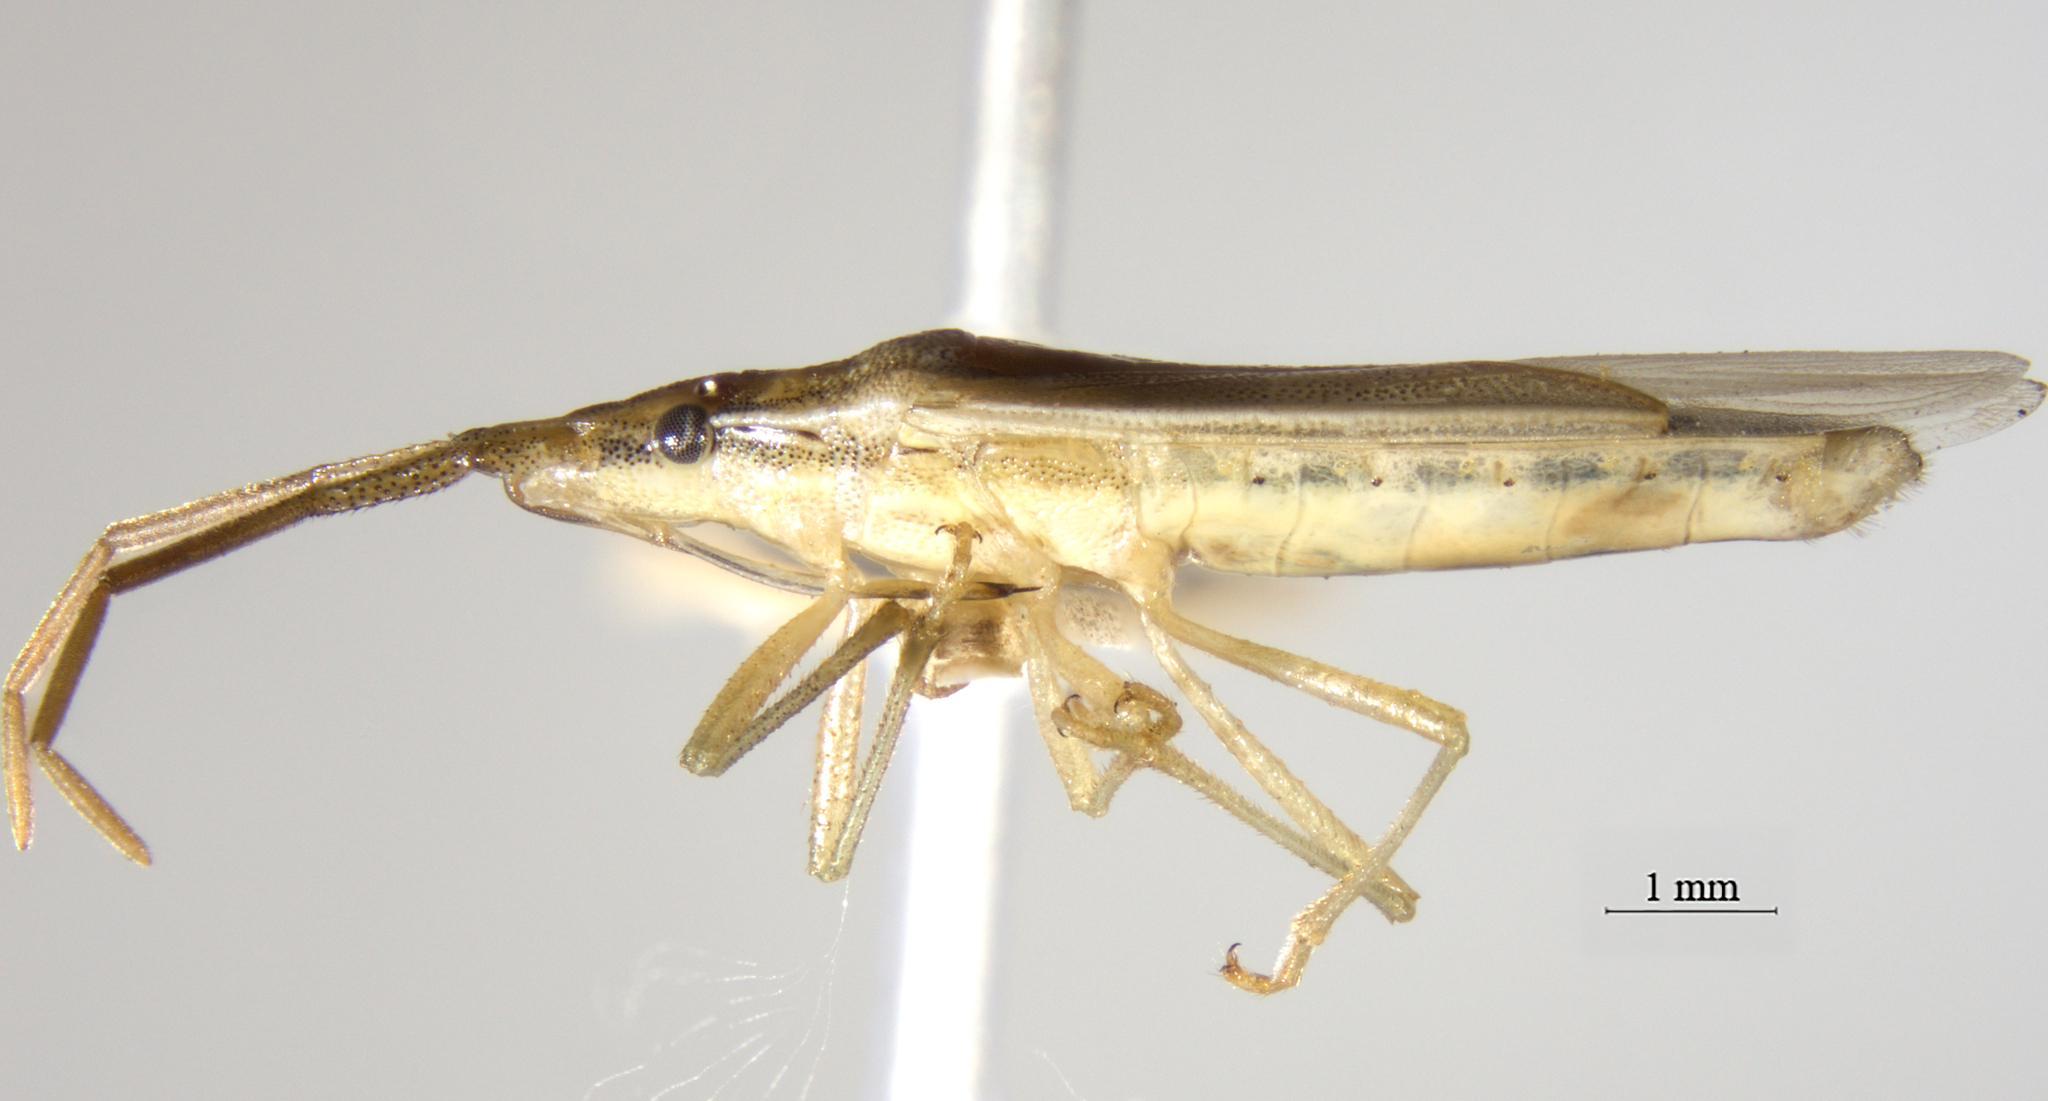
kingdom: Animalia
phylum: Arthropoda
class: Insecta
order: Hemiptera
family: Pentatomidae
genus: Mecidea
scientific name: Mecidea minor
